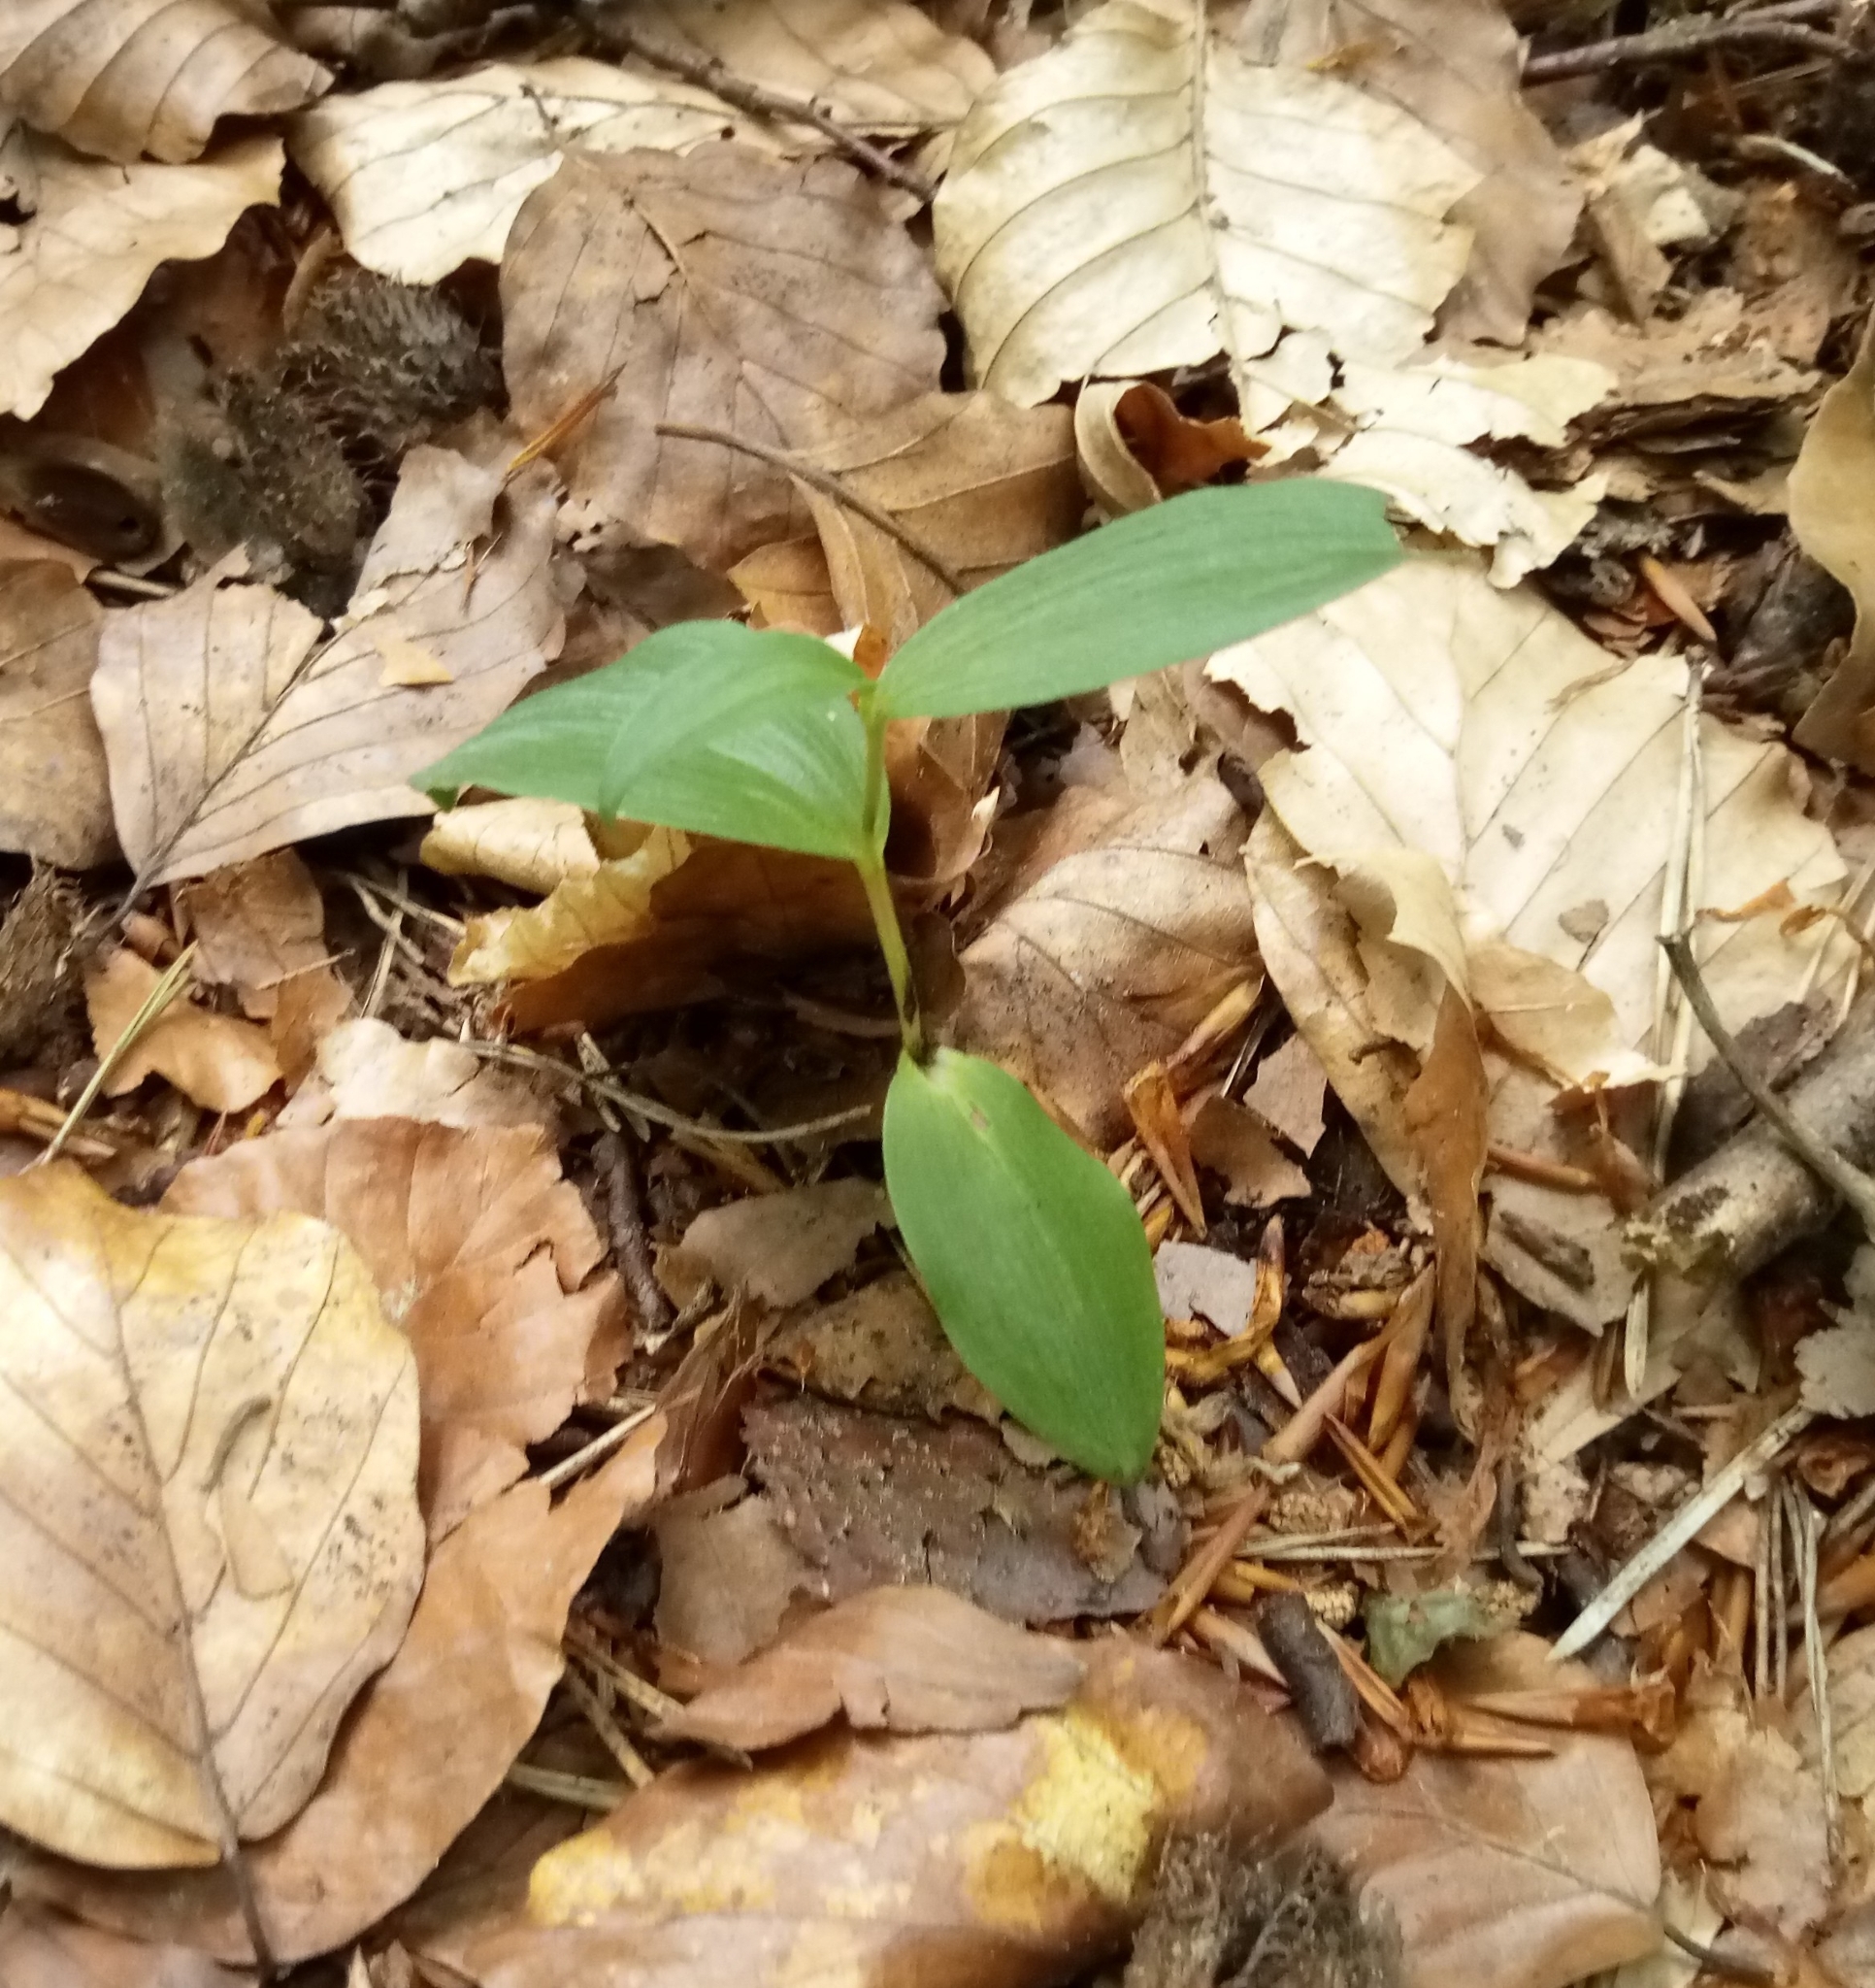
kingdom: Plantae
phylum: Tracheophyta
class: Liliopsida
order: Asparagales
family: Orchidaceae
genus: Cephalanthera
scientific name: Cephalanthera damasonium
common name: White helleborine
